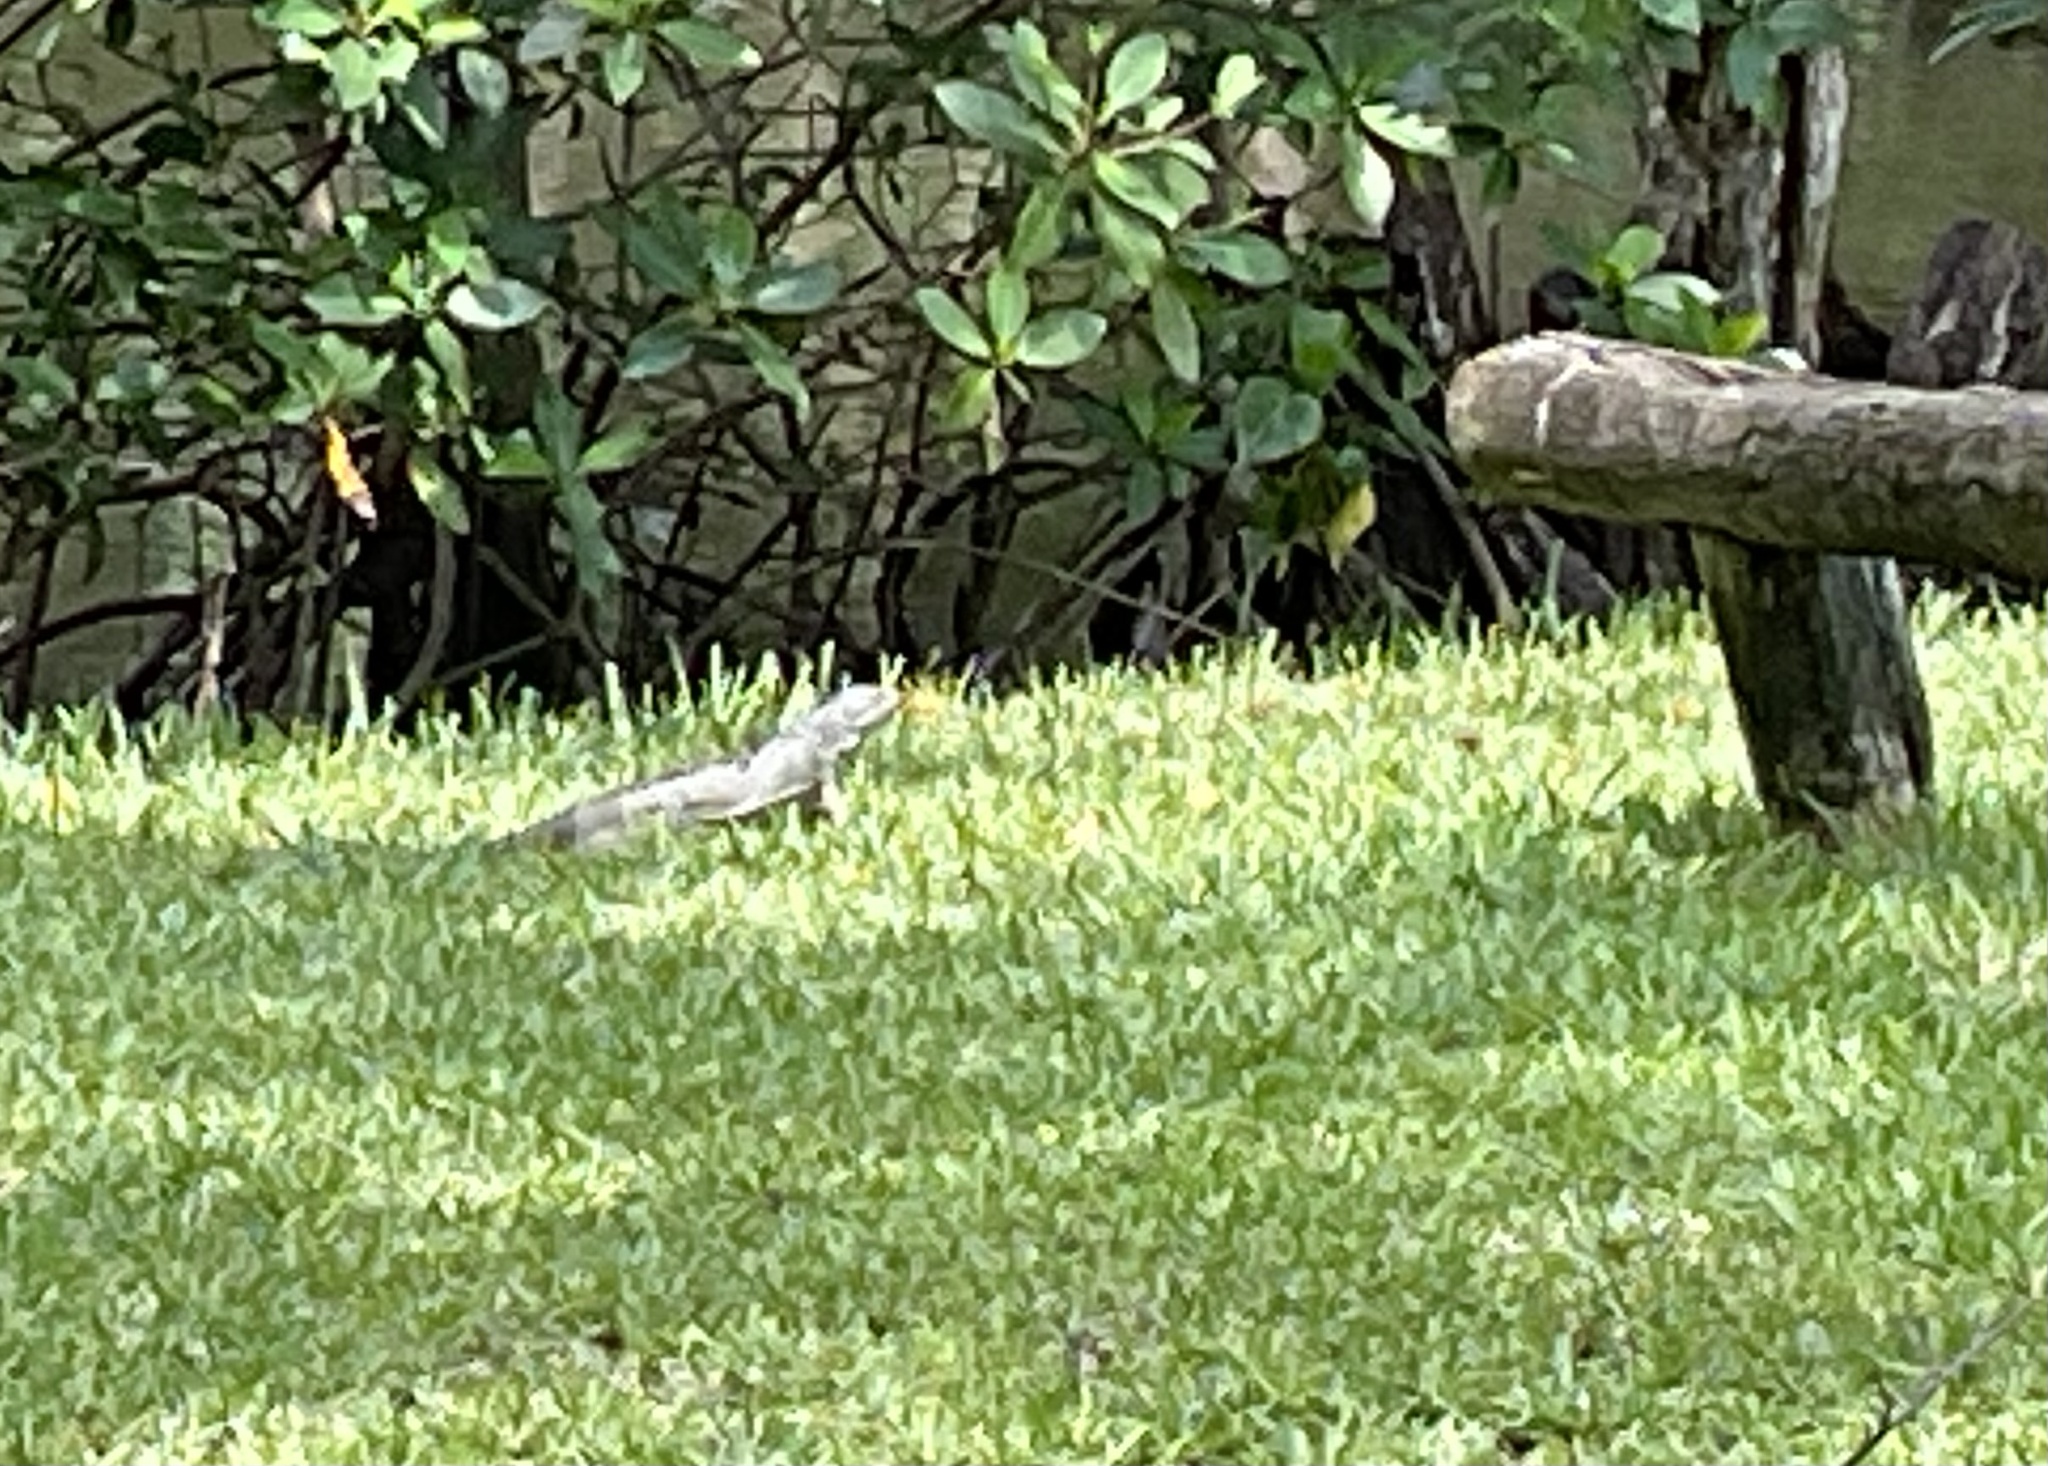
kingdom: Animalia
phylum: Chordata
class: Squamata
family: Iguanidae
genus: Iguana
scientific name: Iguana iguana
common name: Green iguana
